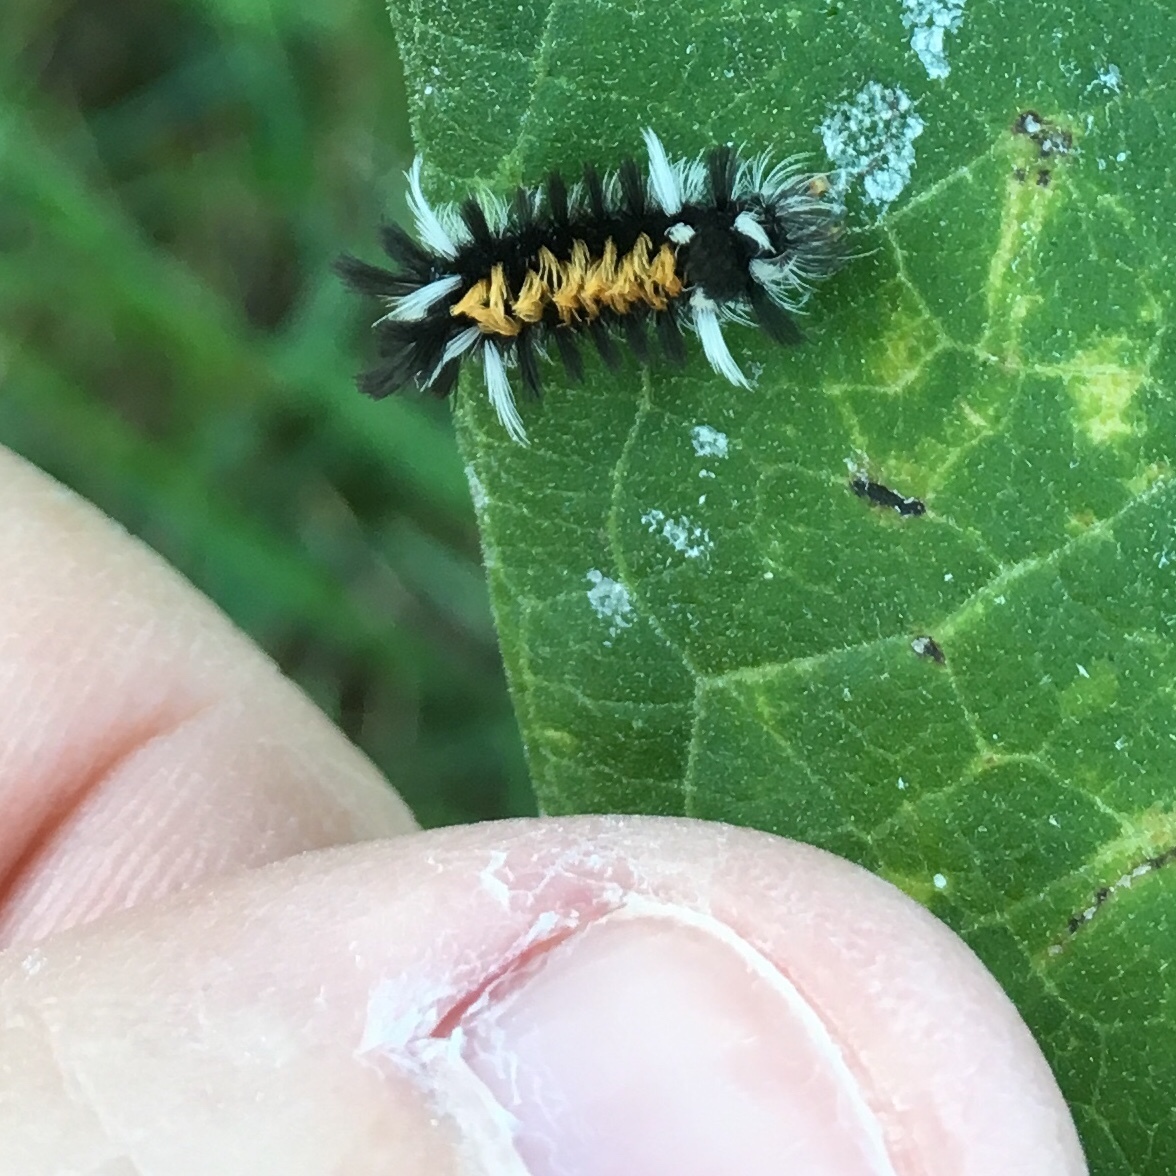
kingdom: Animalia
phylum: Arthropoda
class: Insecta
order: Lepidoptera
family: Erebidae
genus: Euchaetes
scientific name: Euchaetes egle
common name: Milkweed tussock moth
